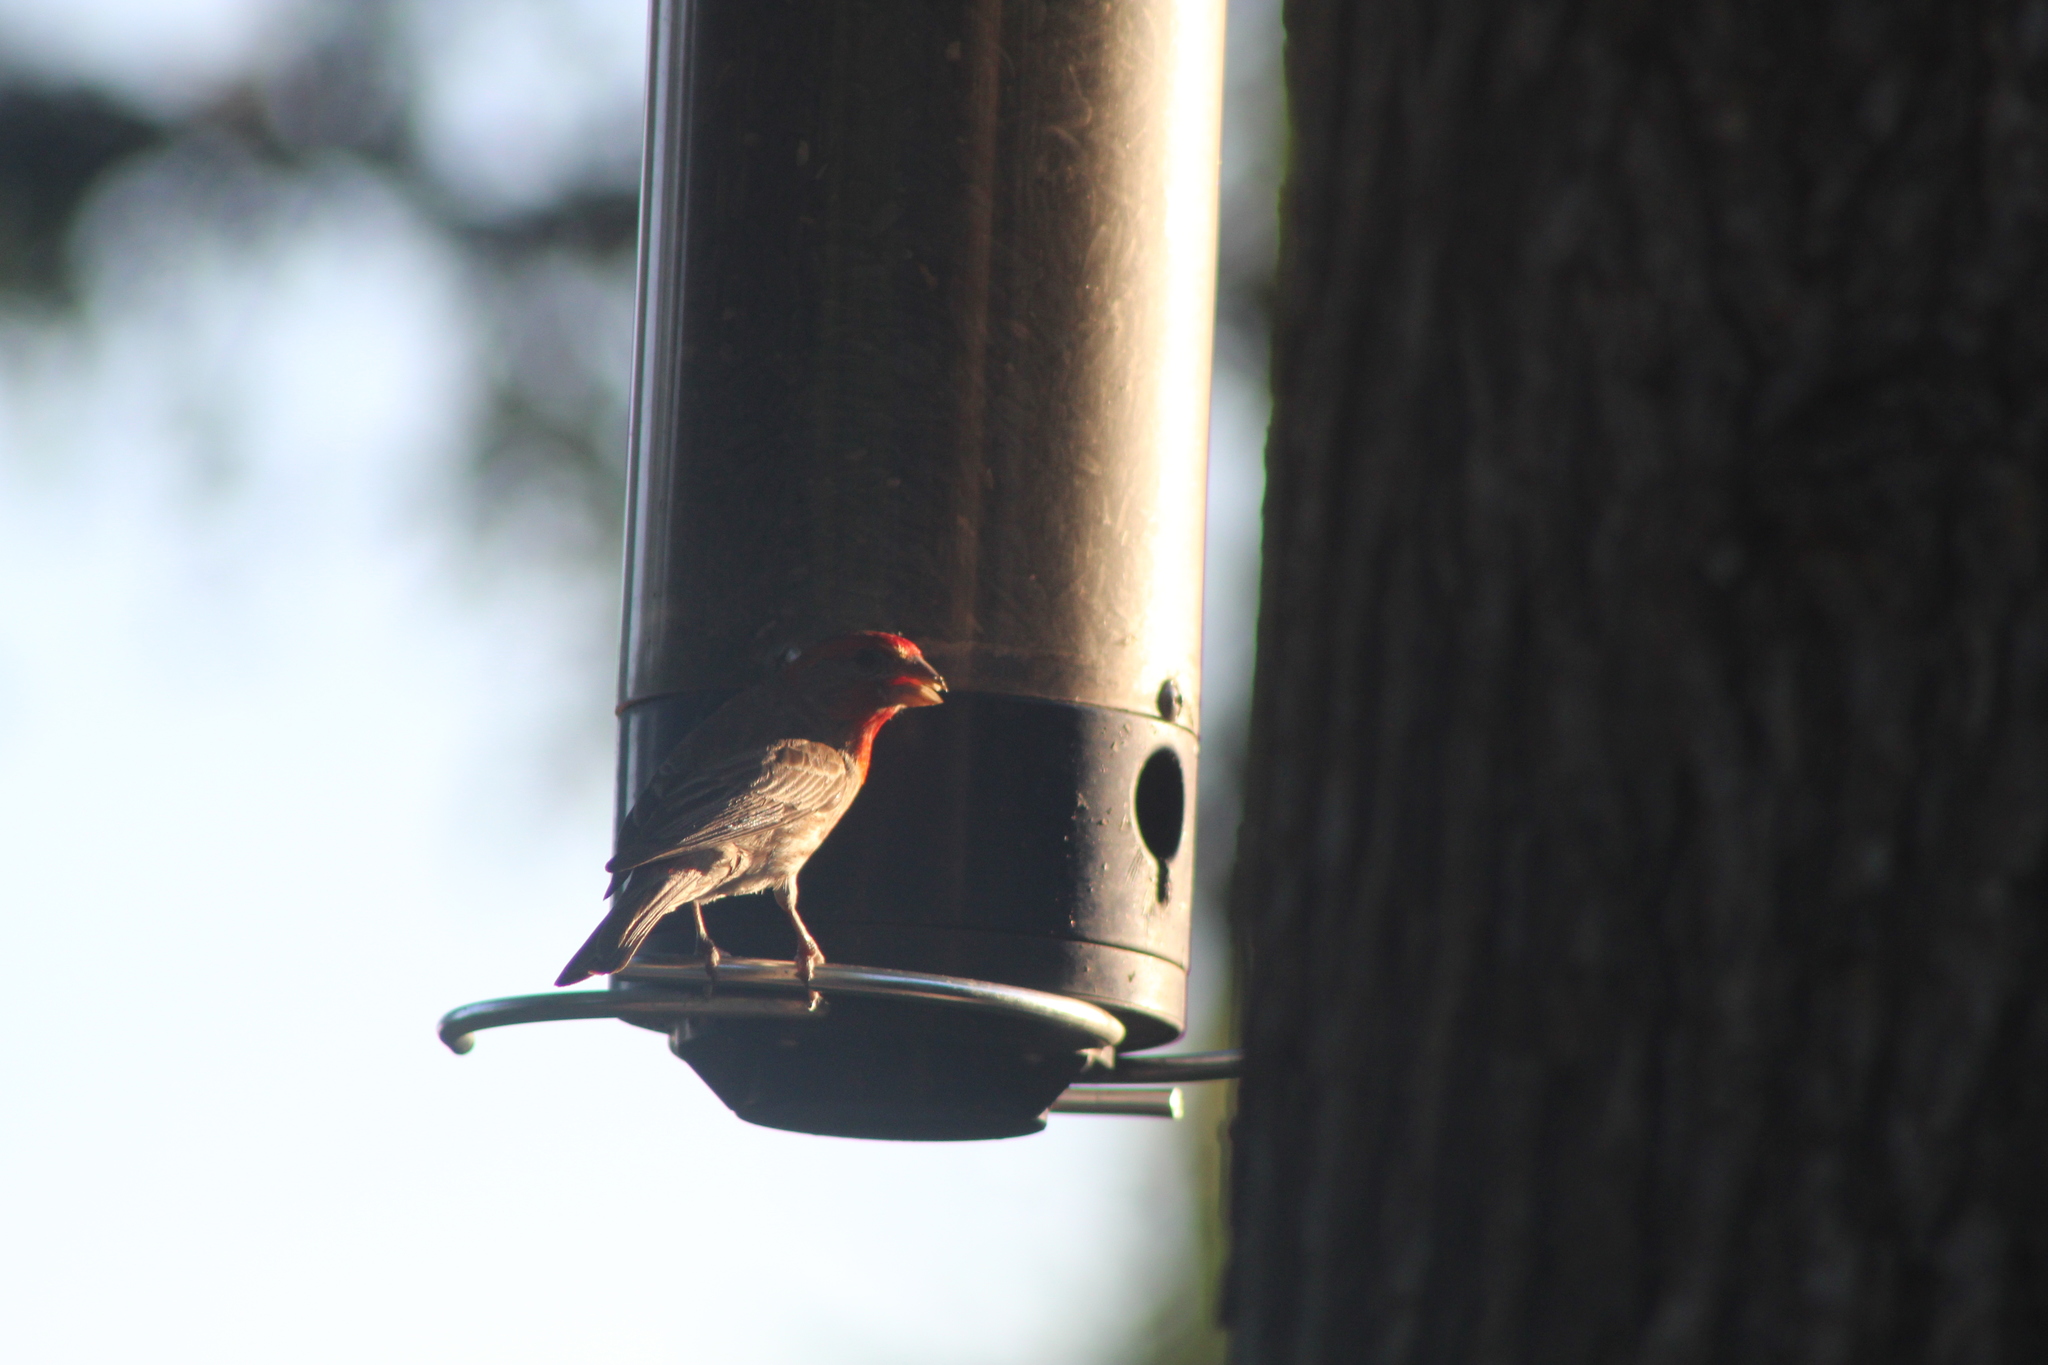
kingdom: Animalia
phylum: Chordata
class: Aves
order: Passeriformes
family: Fringillidae
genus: Haemorhous
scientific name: Haemorhous mexicanus
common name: House finch
